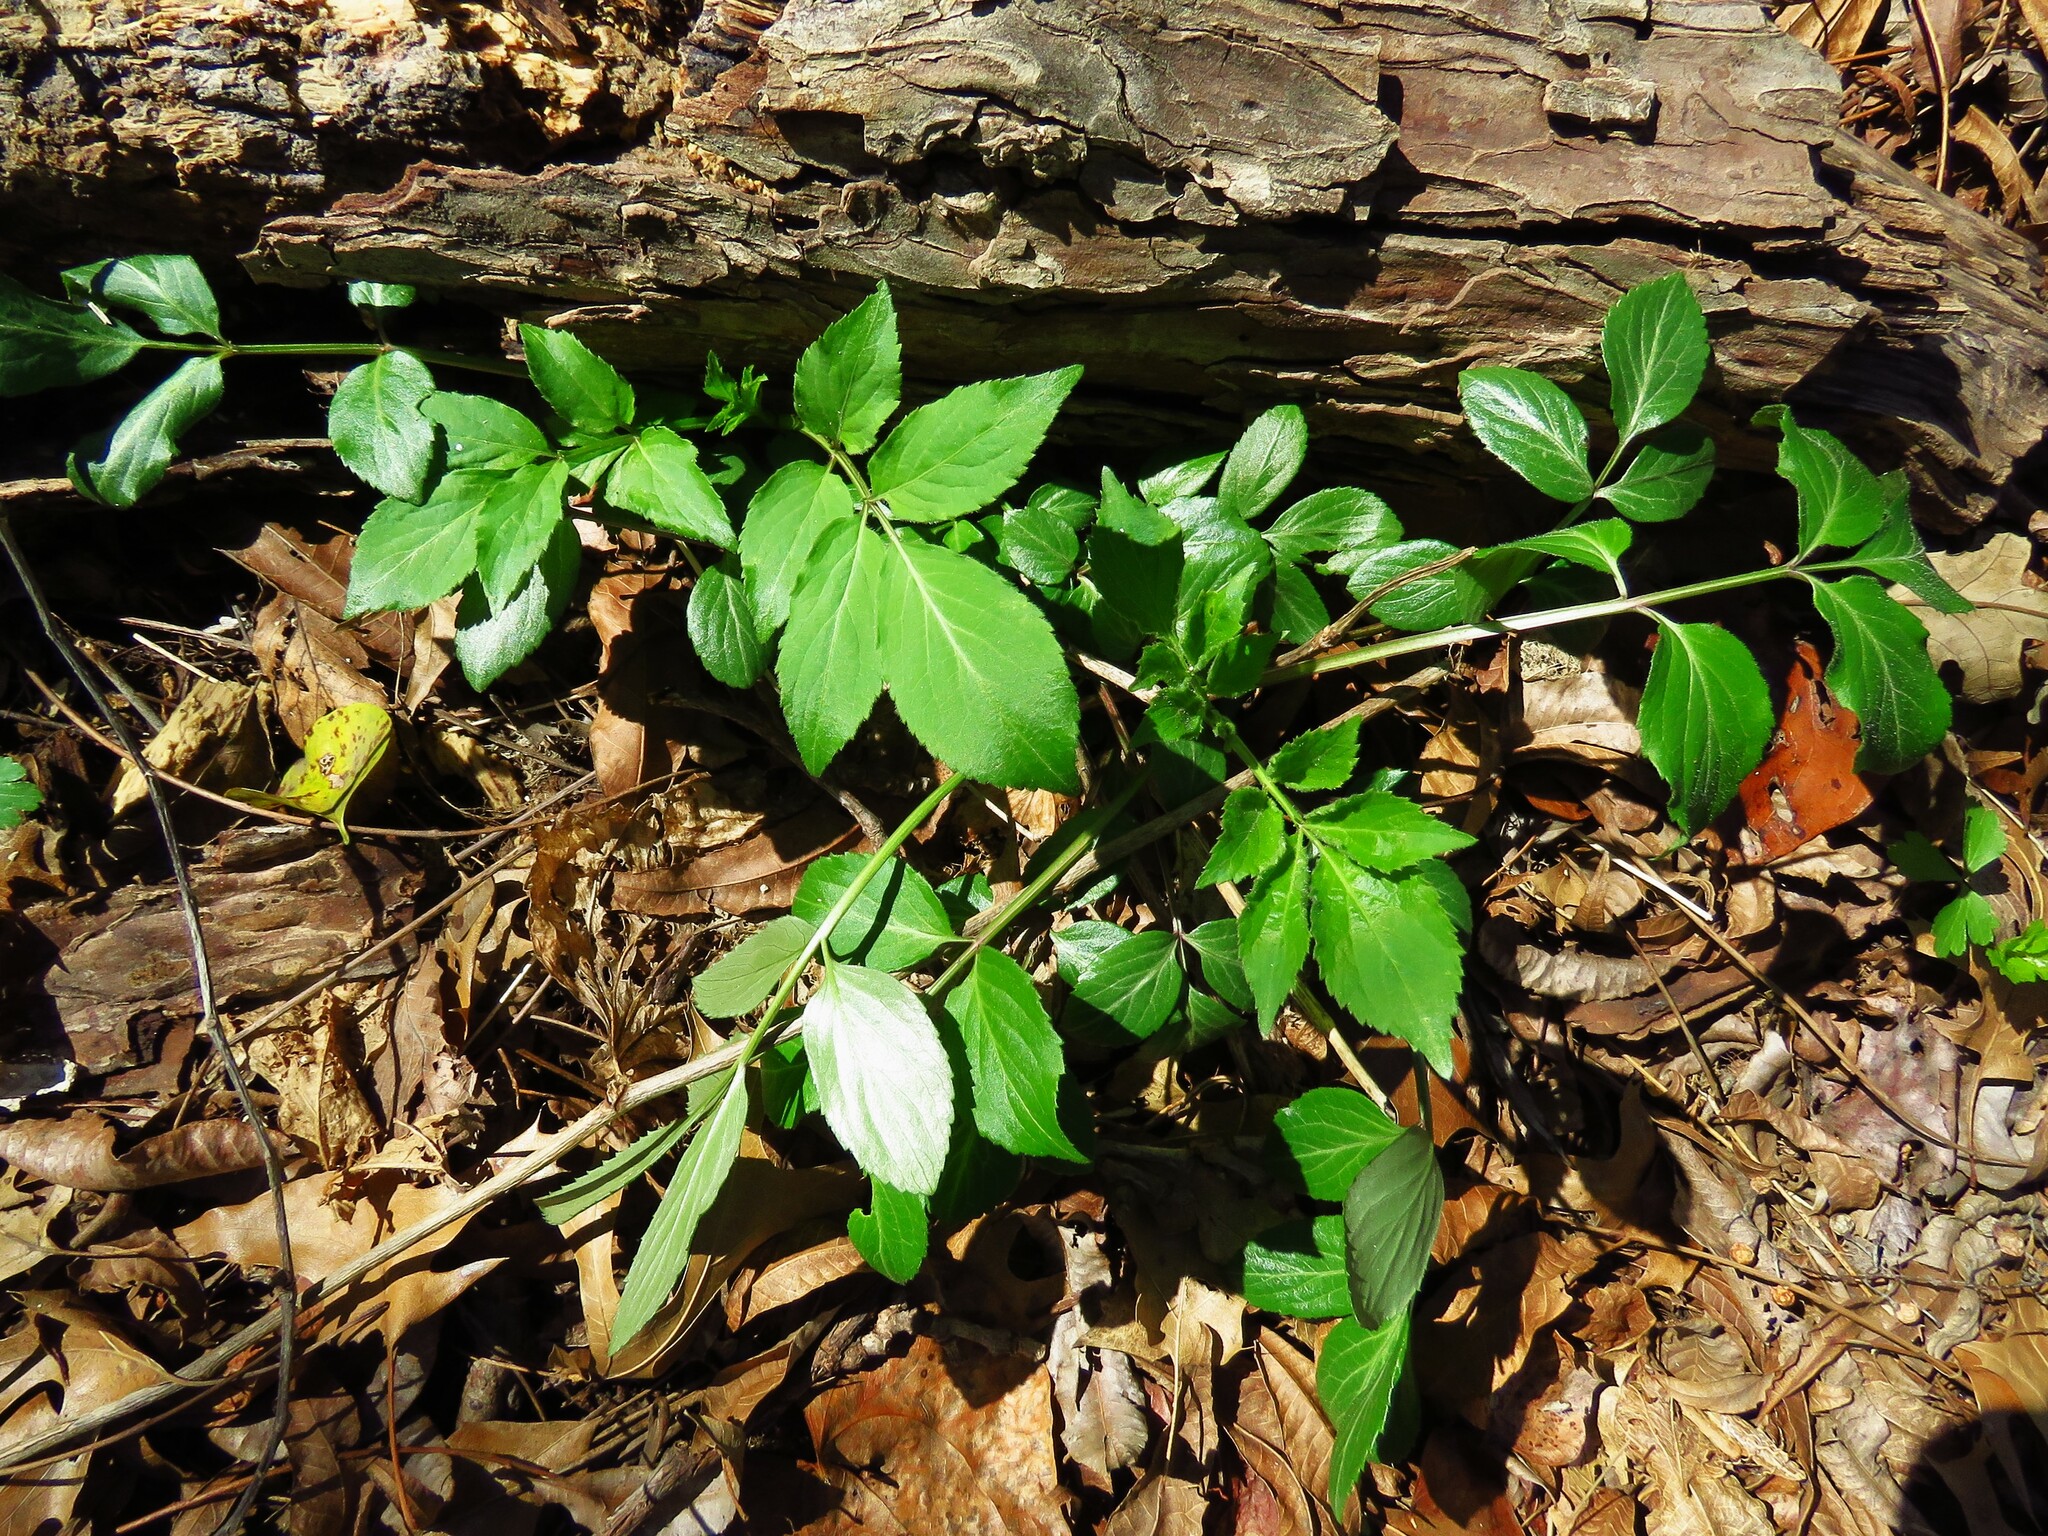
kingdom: Plantae
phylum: Tracheophyta
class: Magnoliopsida
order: Dipsacales
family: Viburnaceae
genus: Sambucus
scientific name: Sambucus canadensis
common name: American elder
